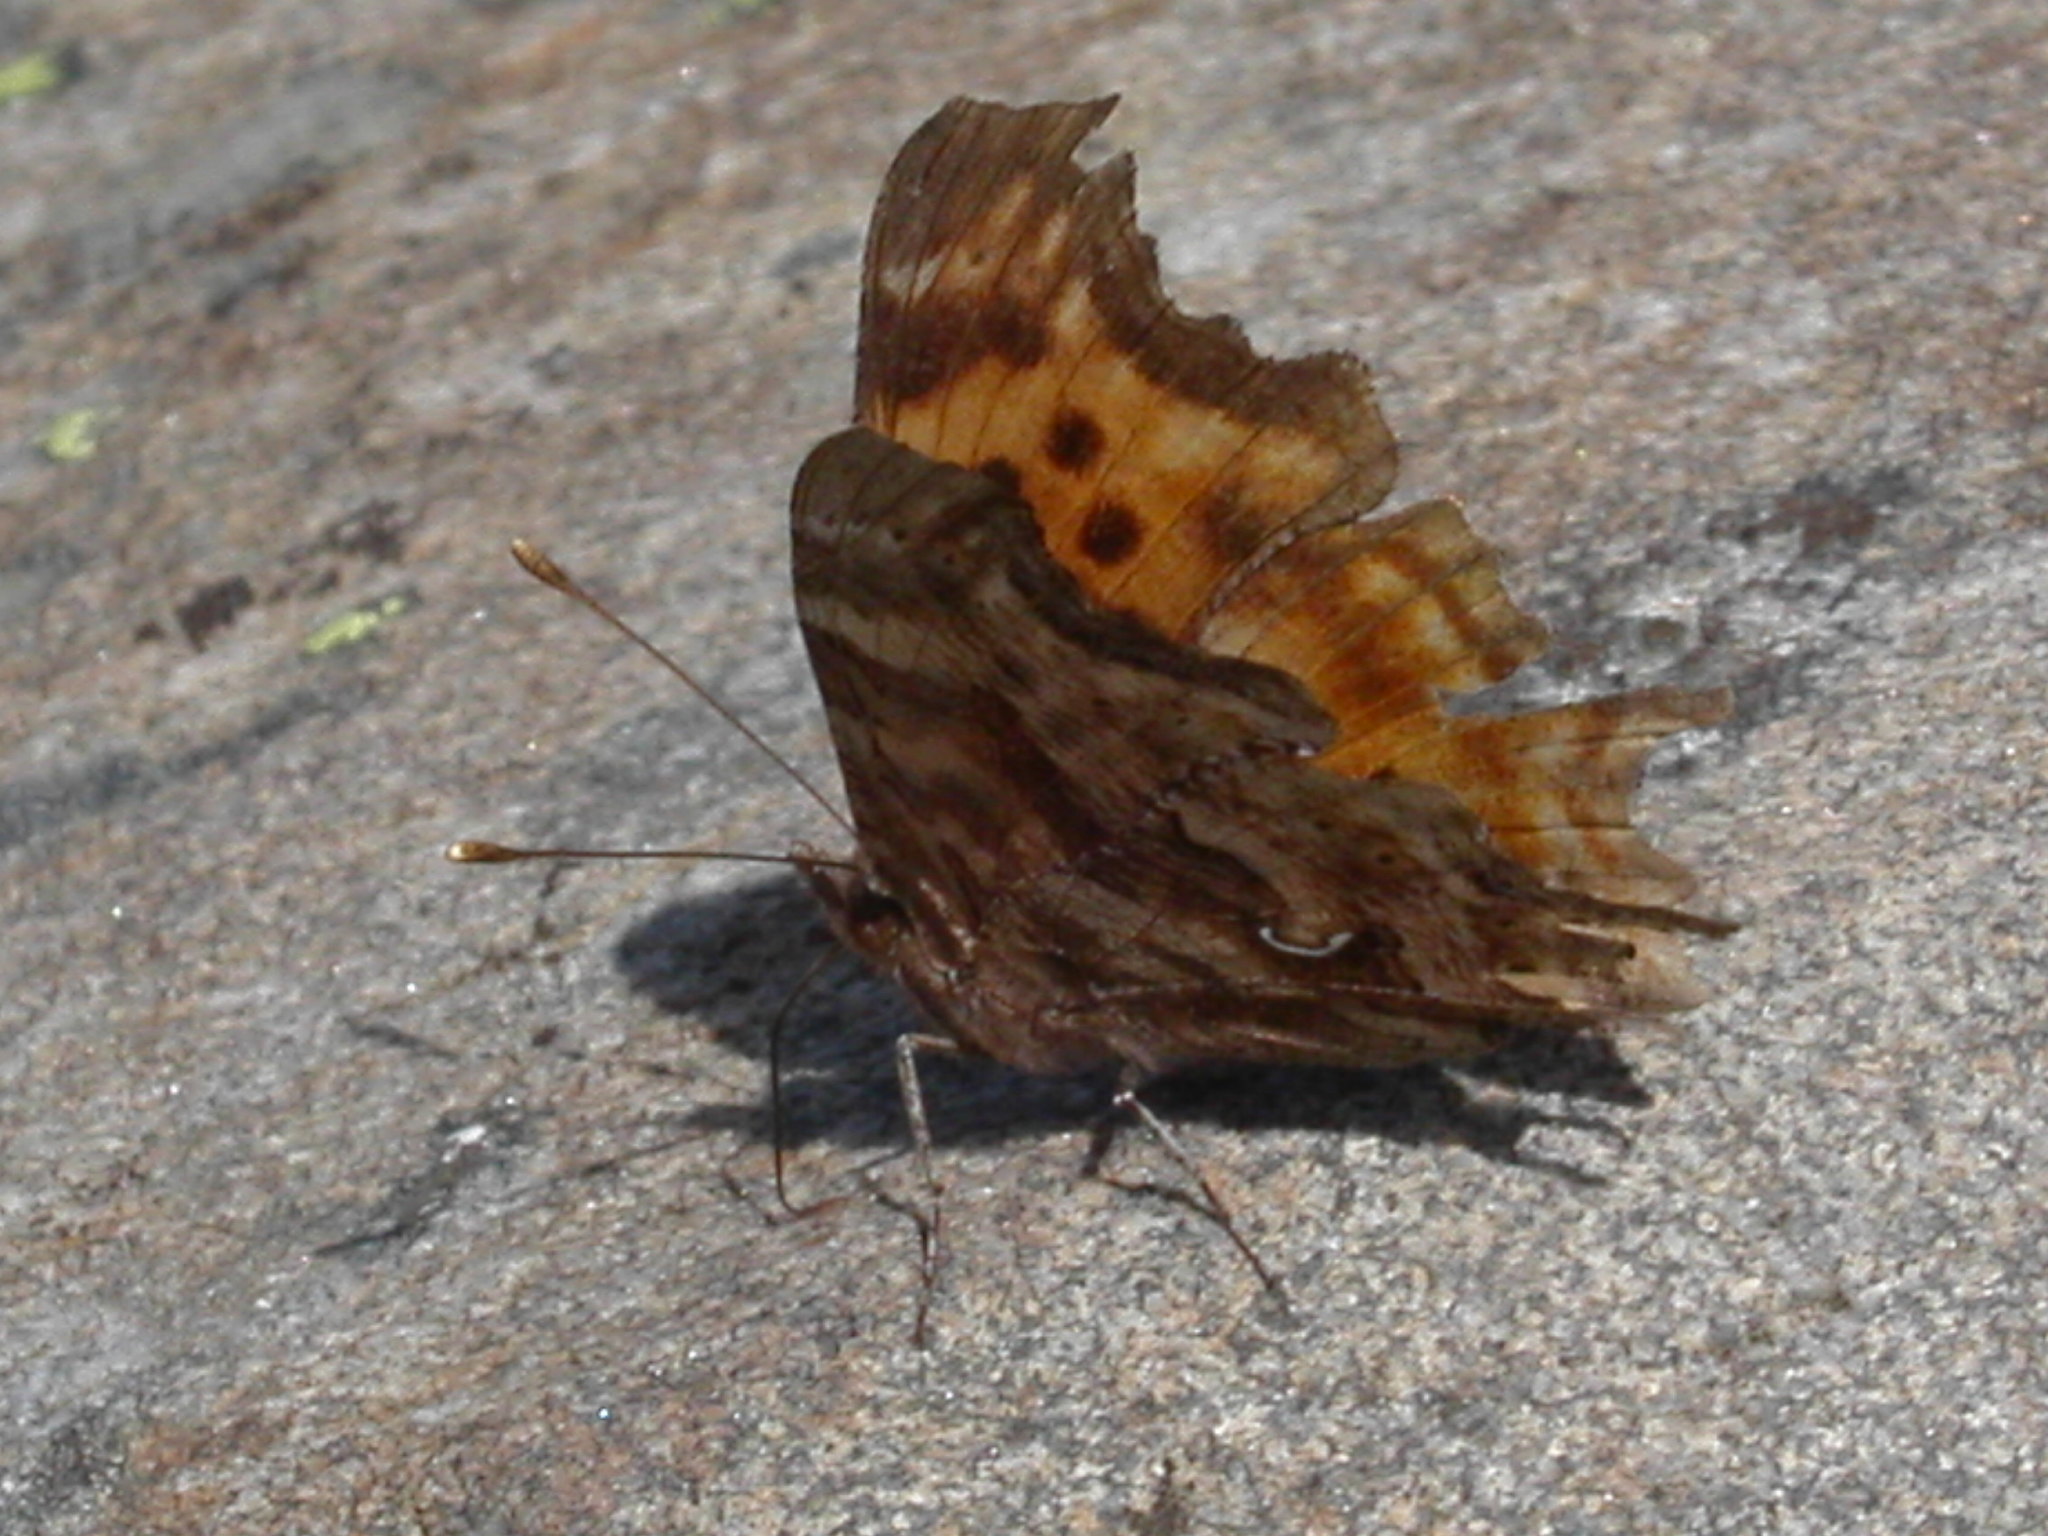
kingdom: Animalia
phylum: Arthropoda
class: Insecta
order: Lepidoptera
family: Nymphalidae
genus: Polygonia
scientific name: Polygonia satyrus
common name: Satyr angle wing
